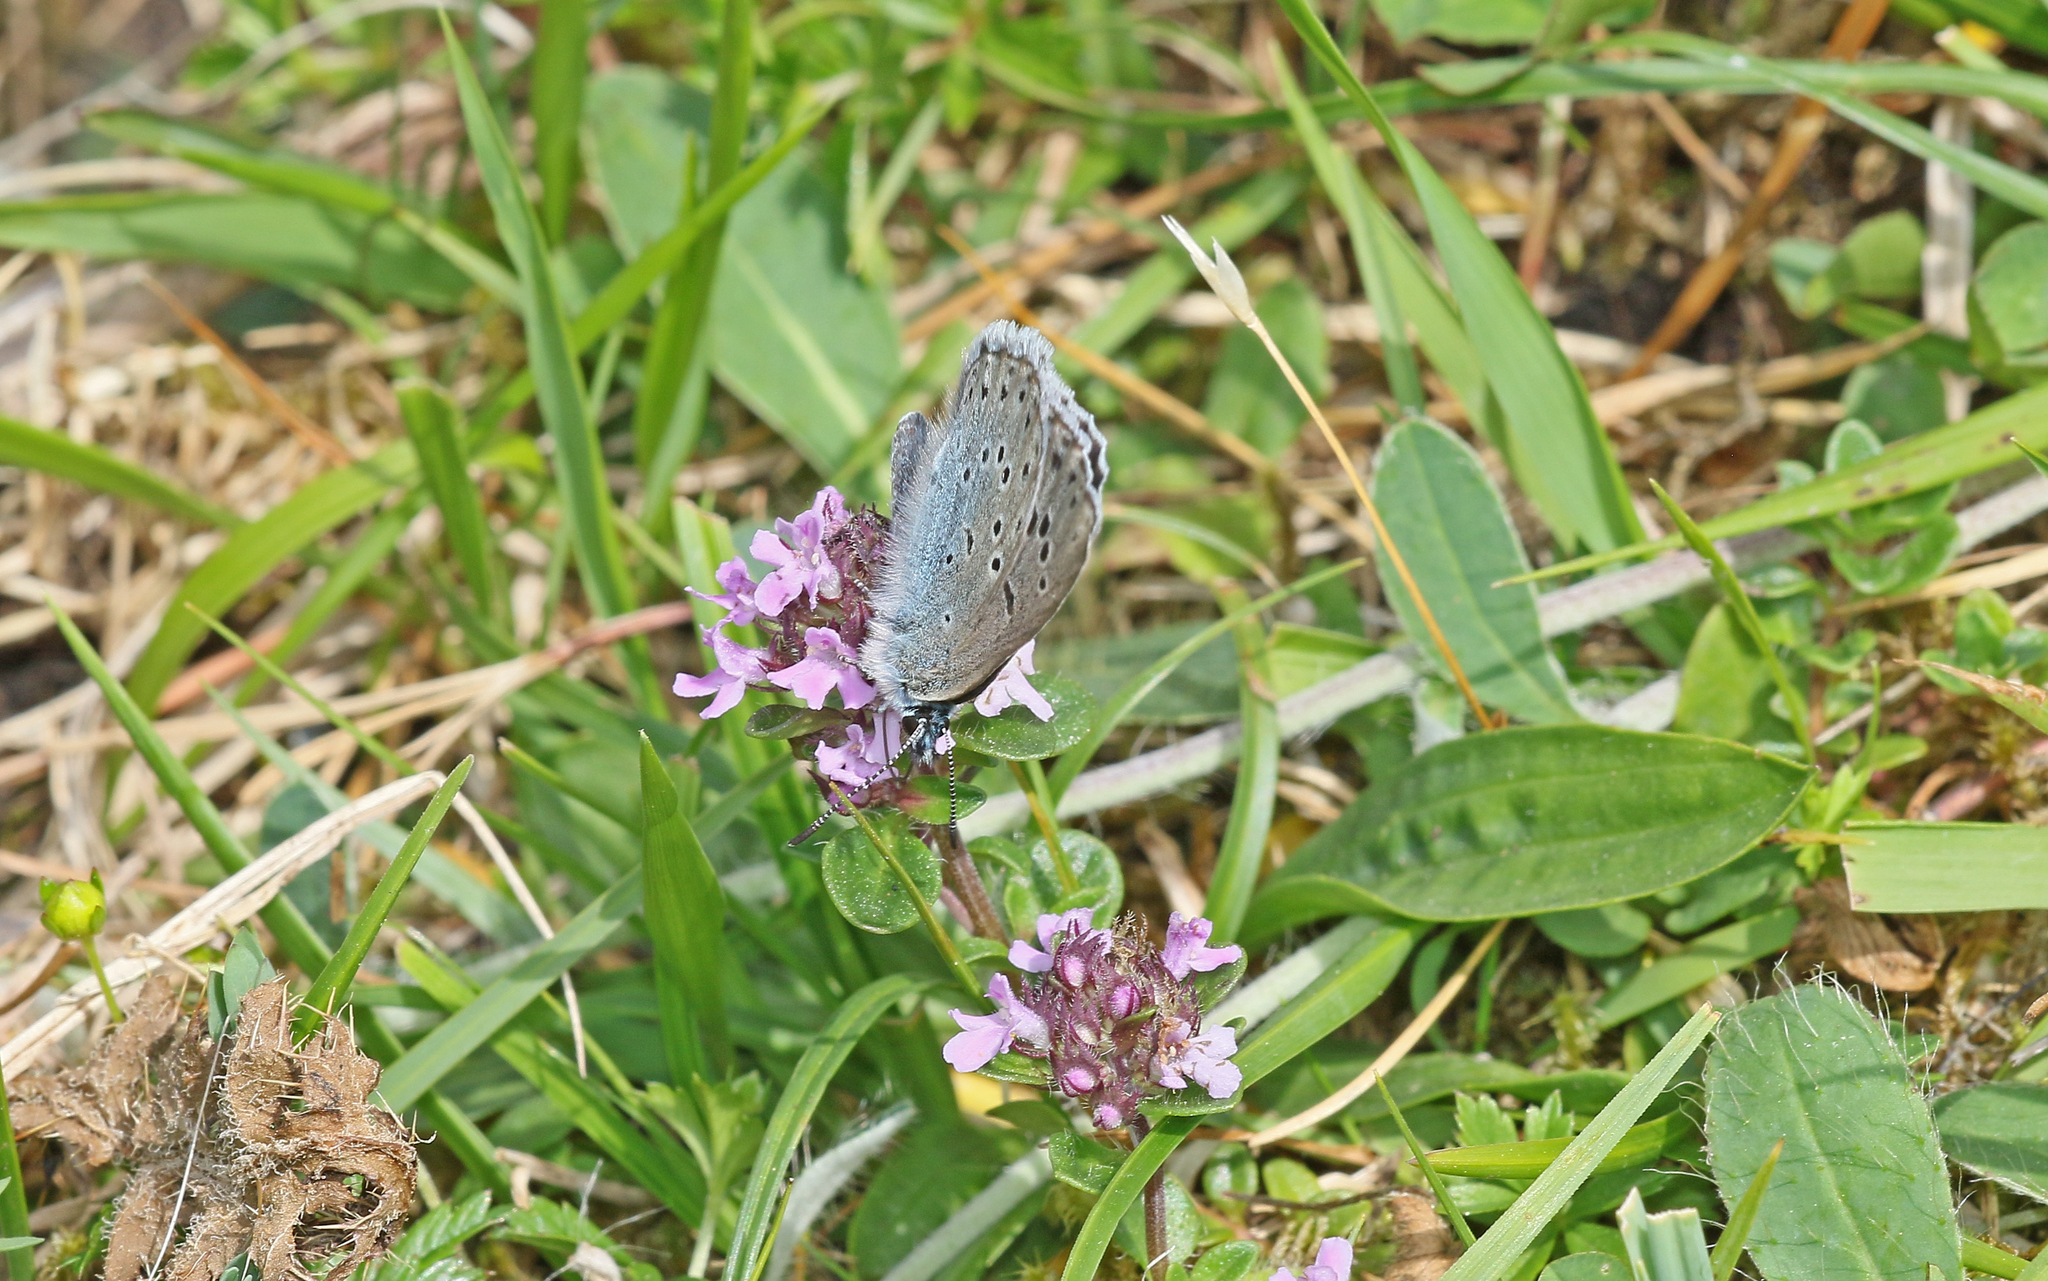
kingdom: Animalia
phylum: Arthropoda
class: Insecta
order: Lepidoptera
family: Lycaenidae
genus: Maculinea
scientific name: Maculinea arion
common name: Large blue
